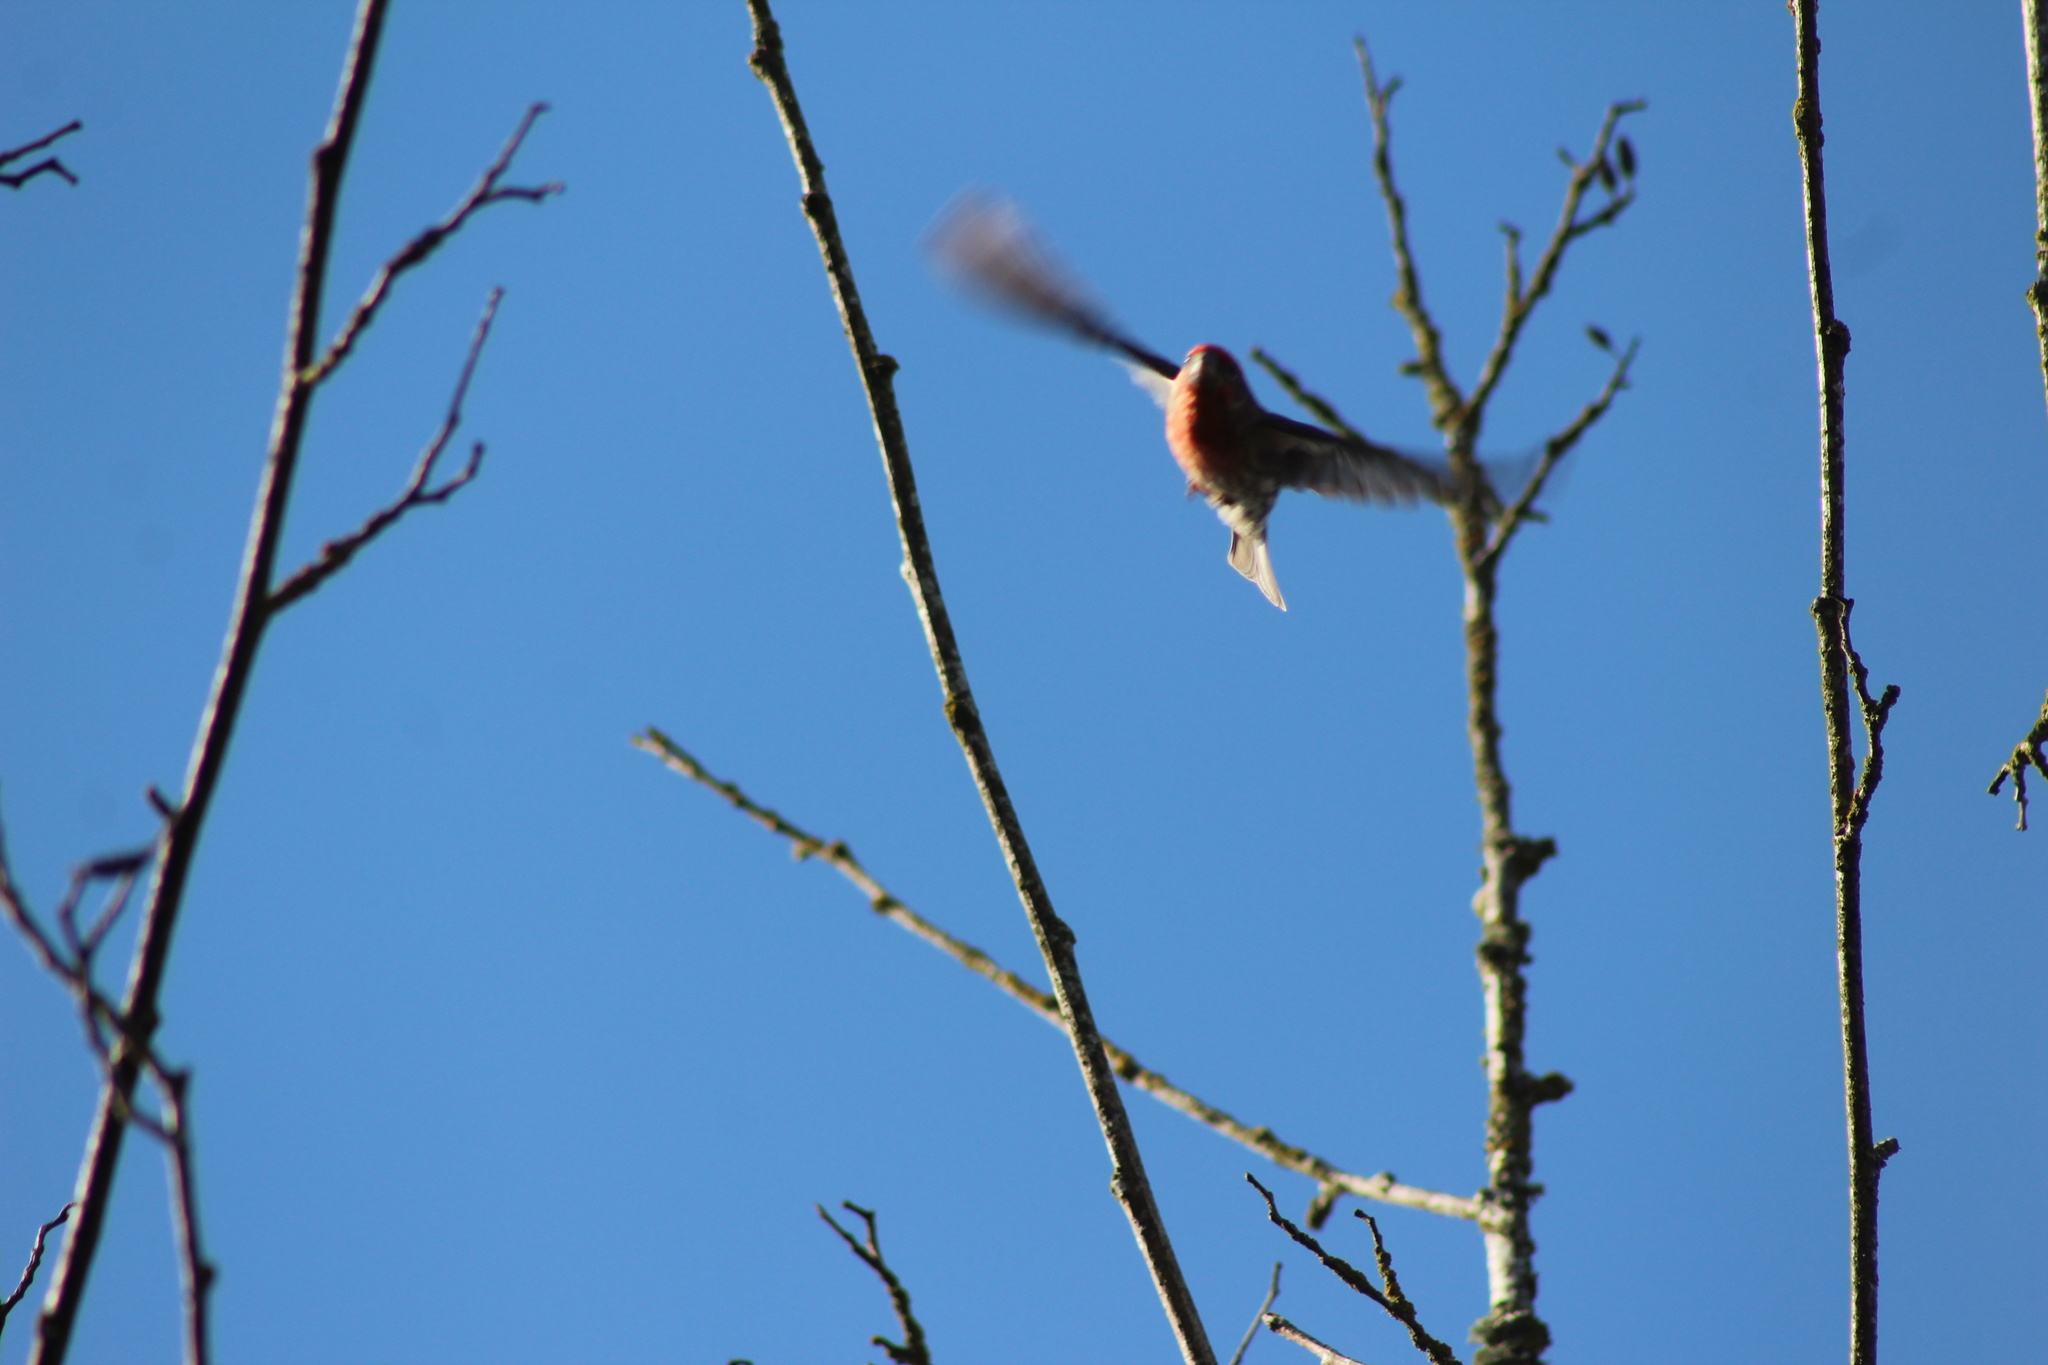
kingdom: Animalia
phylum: Chordata
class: Aves
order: Passeriformes
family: Fringillidae
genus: Haemorhous
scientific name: Haemorhous mexicanus
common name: House finch
